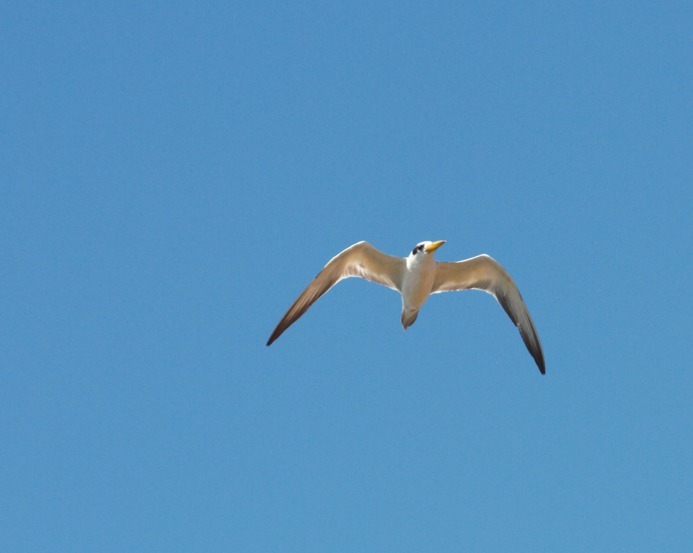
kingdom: Animalia
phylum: Chordata
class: Aves
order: Charadriiformes
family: Laridae
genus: Phaetusa
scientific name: Phaetusa simplex
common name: Large-billed tern
